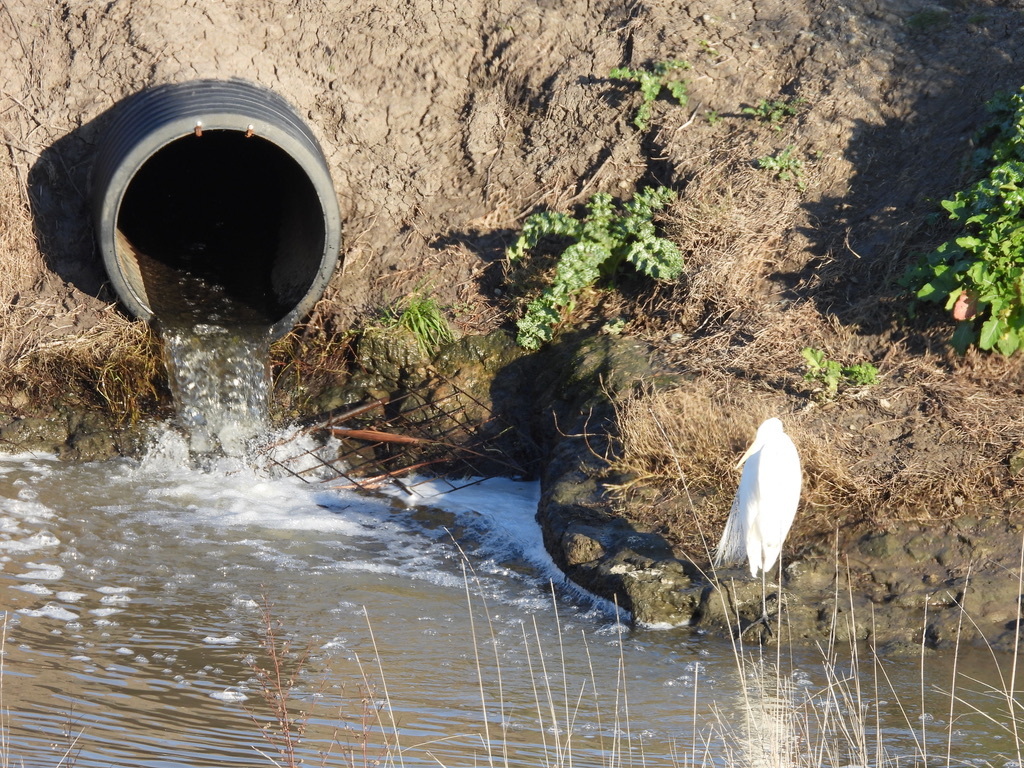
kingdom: Animalia
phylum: Chordata
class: Aves
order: Pelecaniformes
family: Ardeidae
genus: Ardea
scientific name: Ardea alba
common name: Great egret
